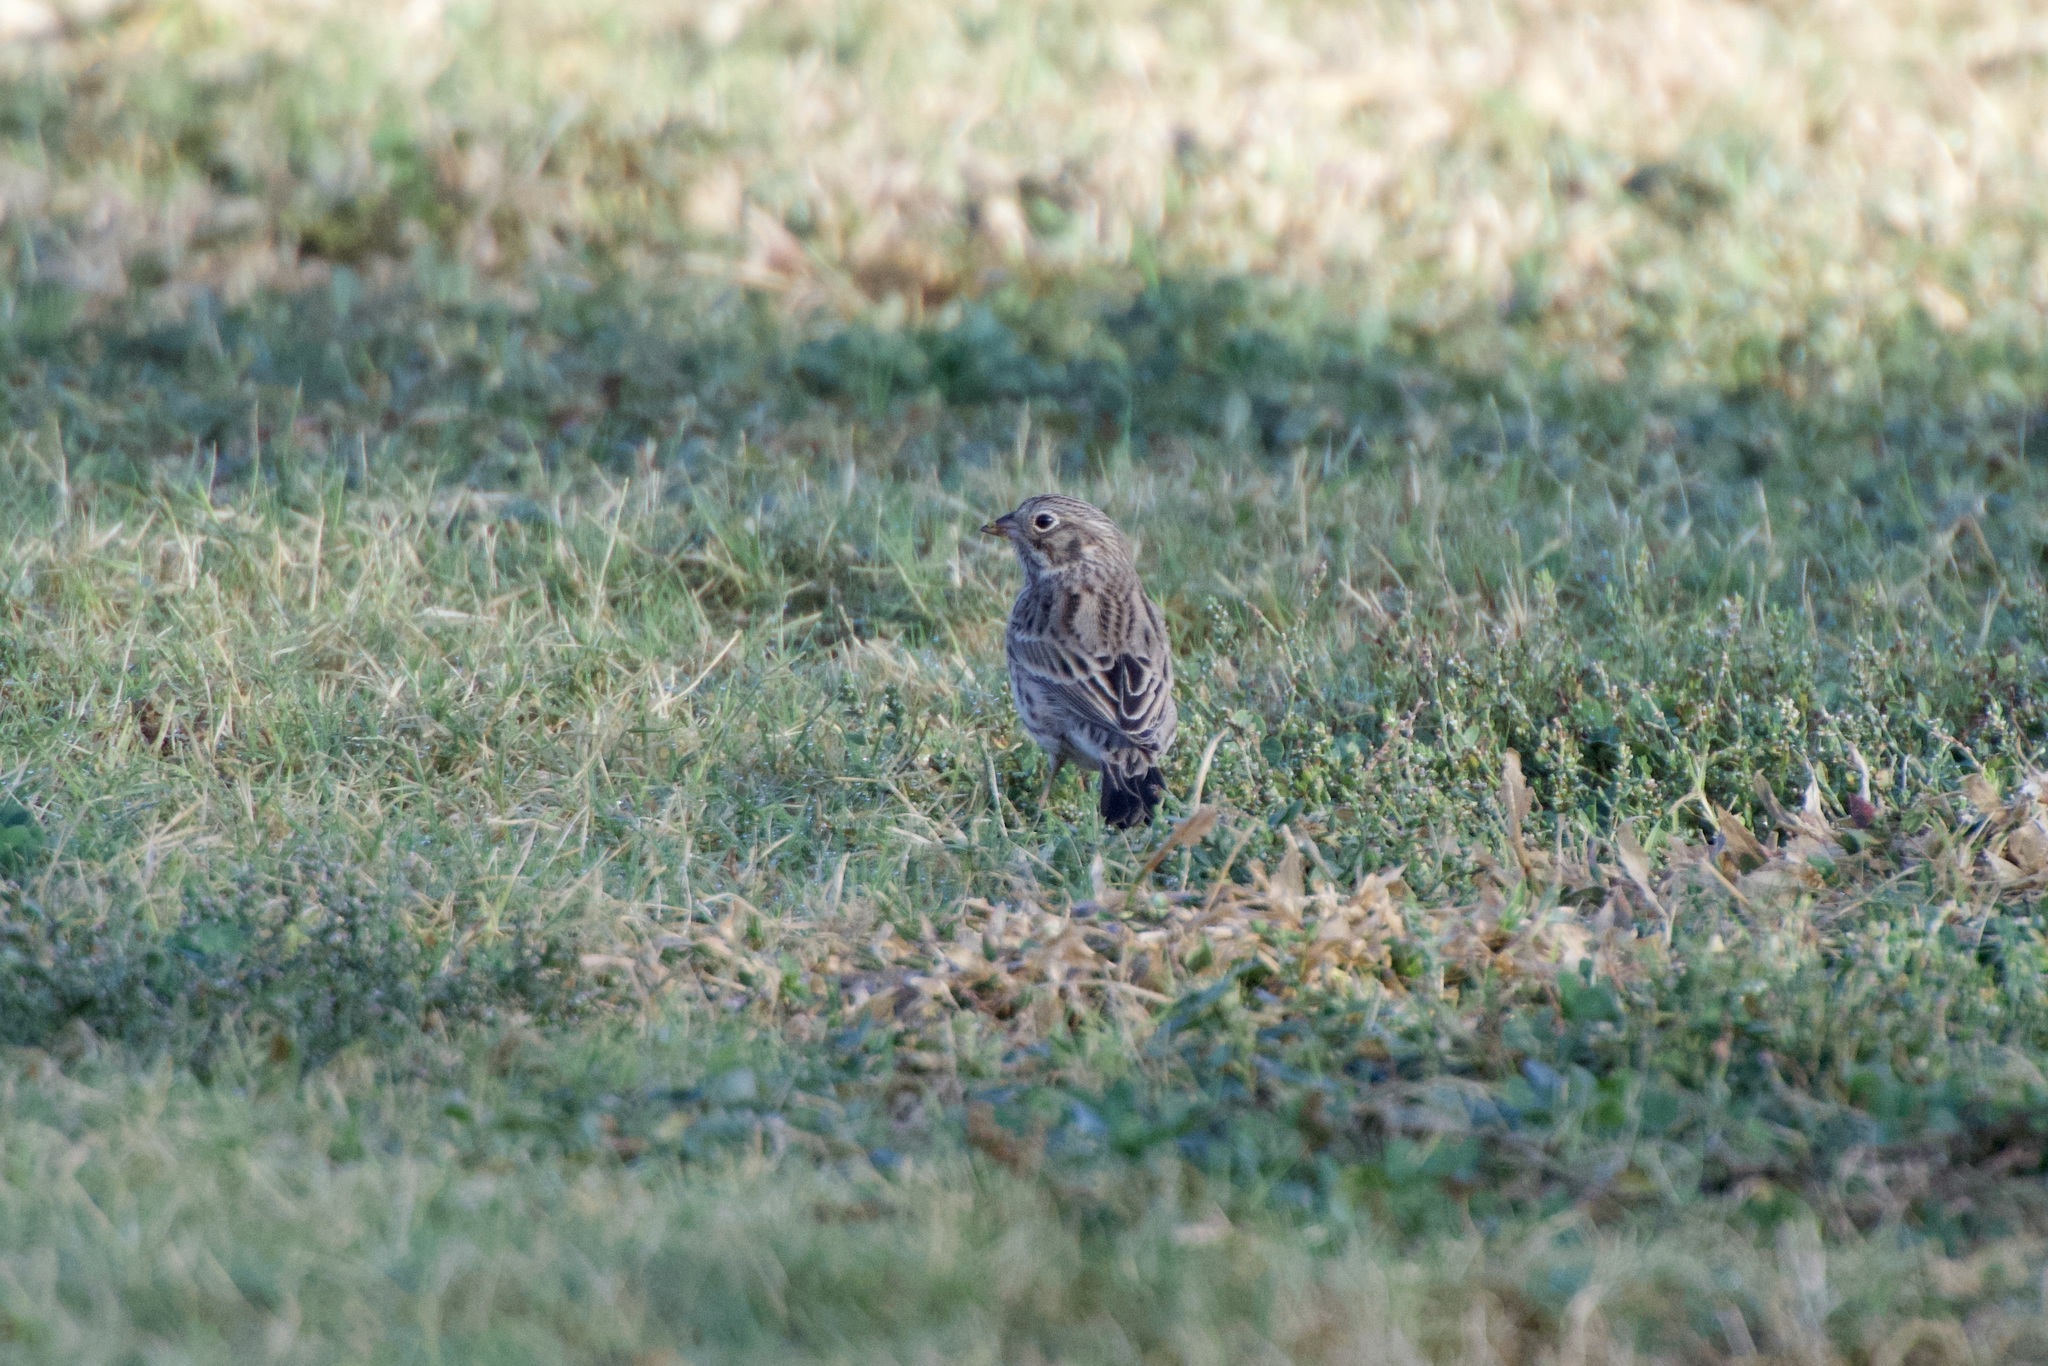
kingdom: Animalia
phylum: Chordata
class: Aves
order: Passeriformes
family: Passerellidae
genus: Pooecetes
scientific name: Pooecetes gramineus
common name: Vesper sparrow
